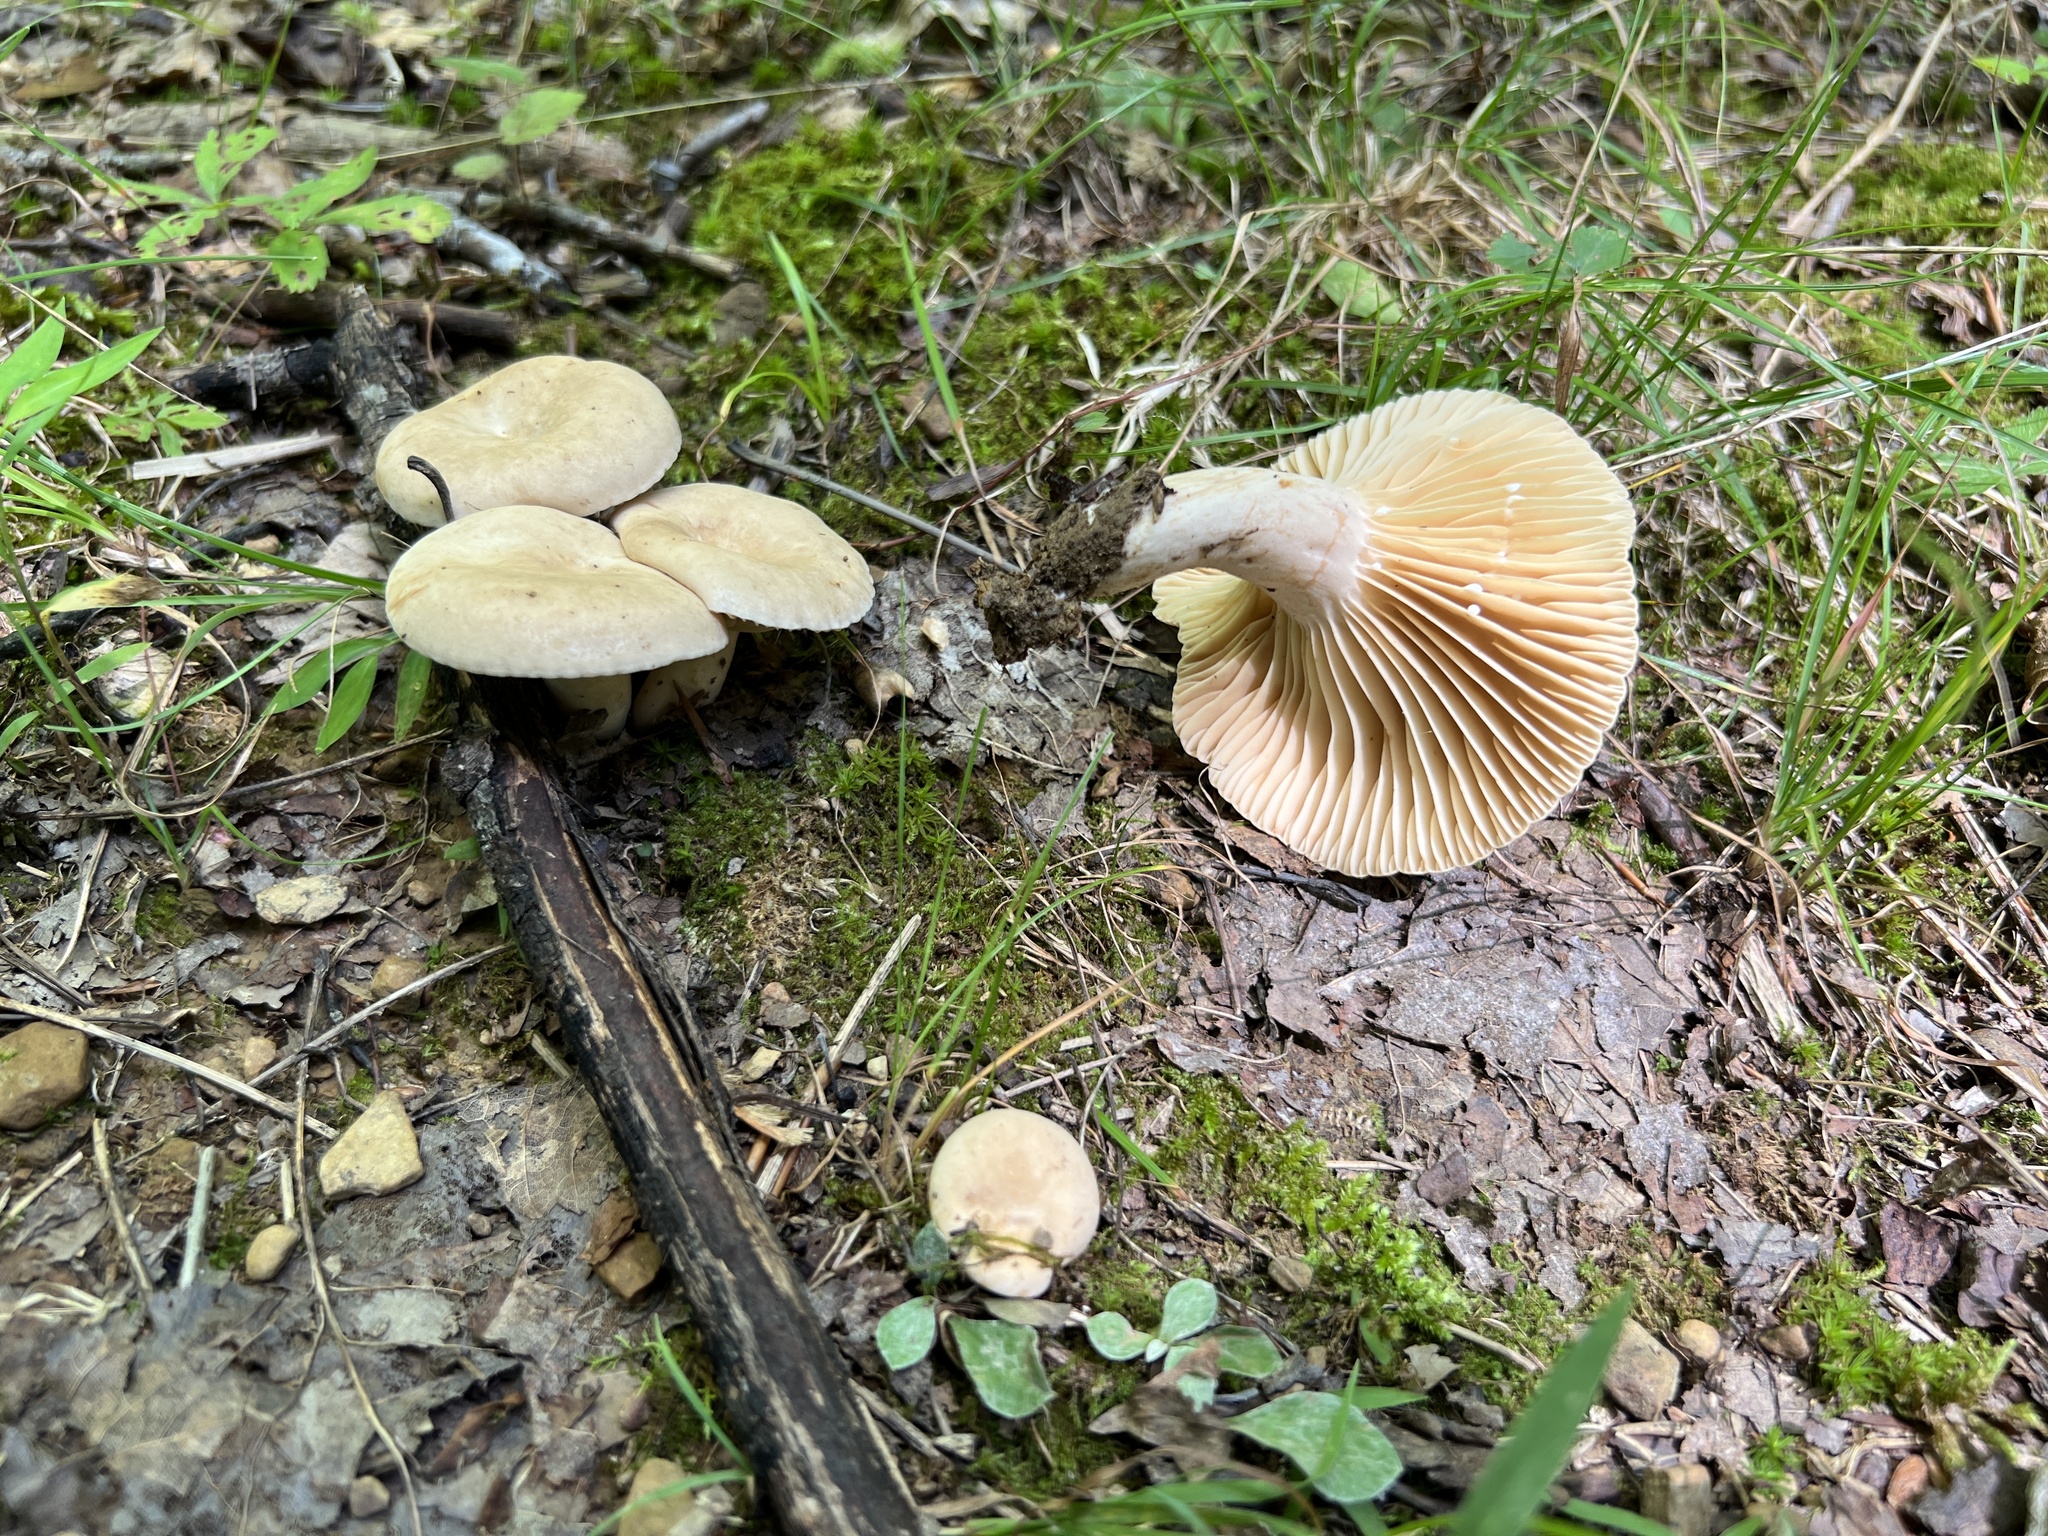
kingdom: Fungi
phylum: Basidiomycota
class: Agaricomycetes
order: Russulales
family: Russulaceae
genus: Lactarius
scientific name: Lactarius subplinthogalus
